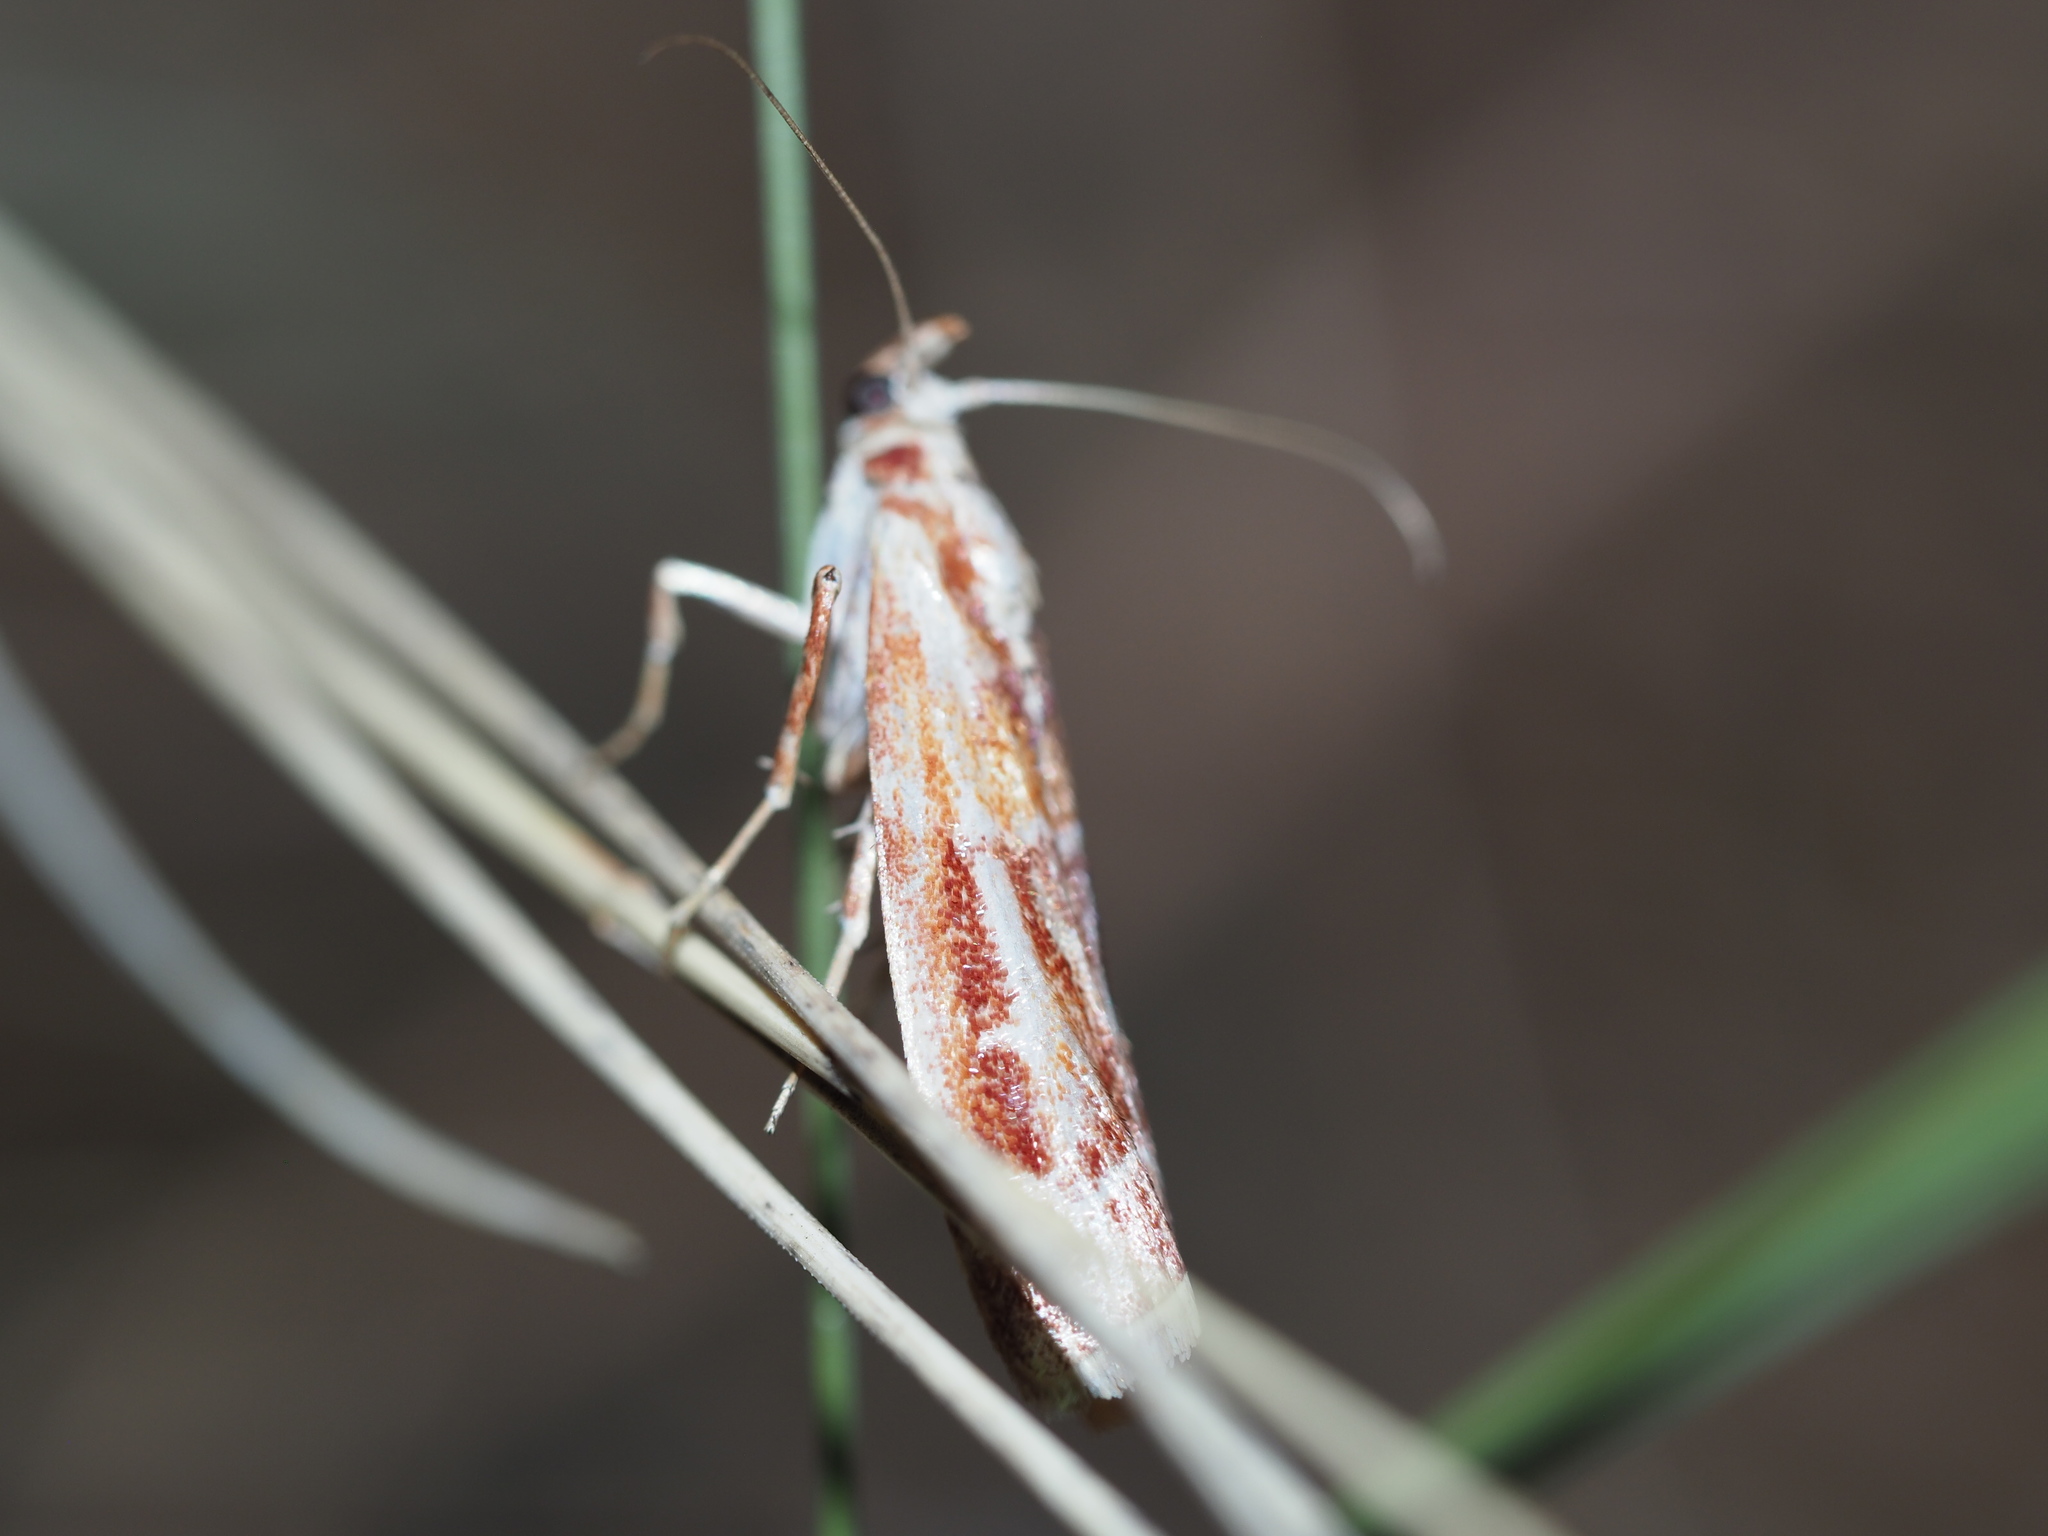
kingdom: Animalia
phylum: Arthropoda
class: Insecta
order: Lepidoptera
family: Pyralidae
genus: Dioryctria
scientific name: Dioryctria auranticella
